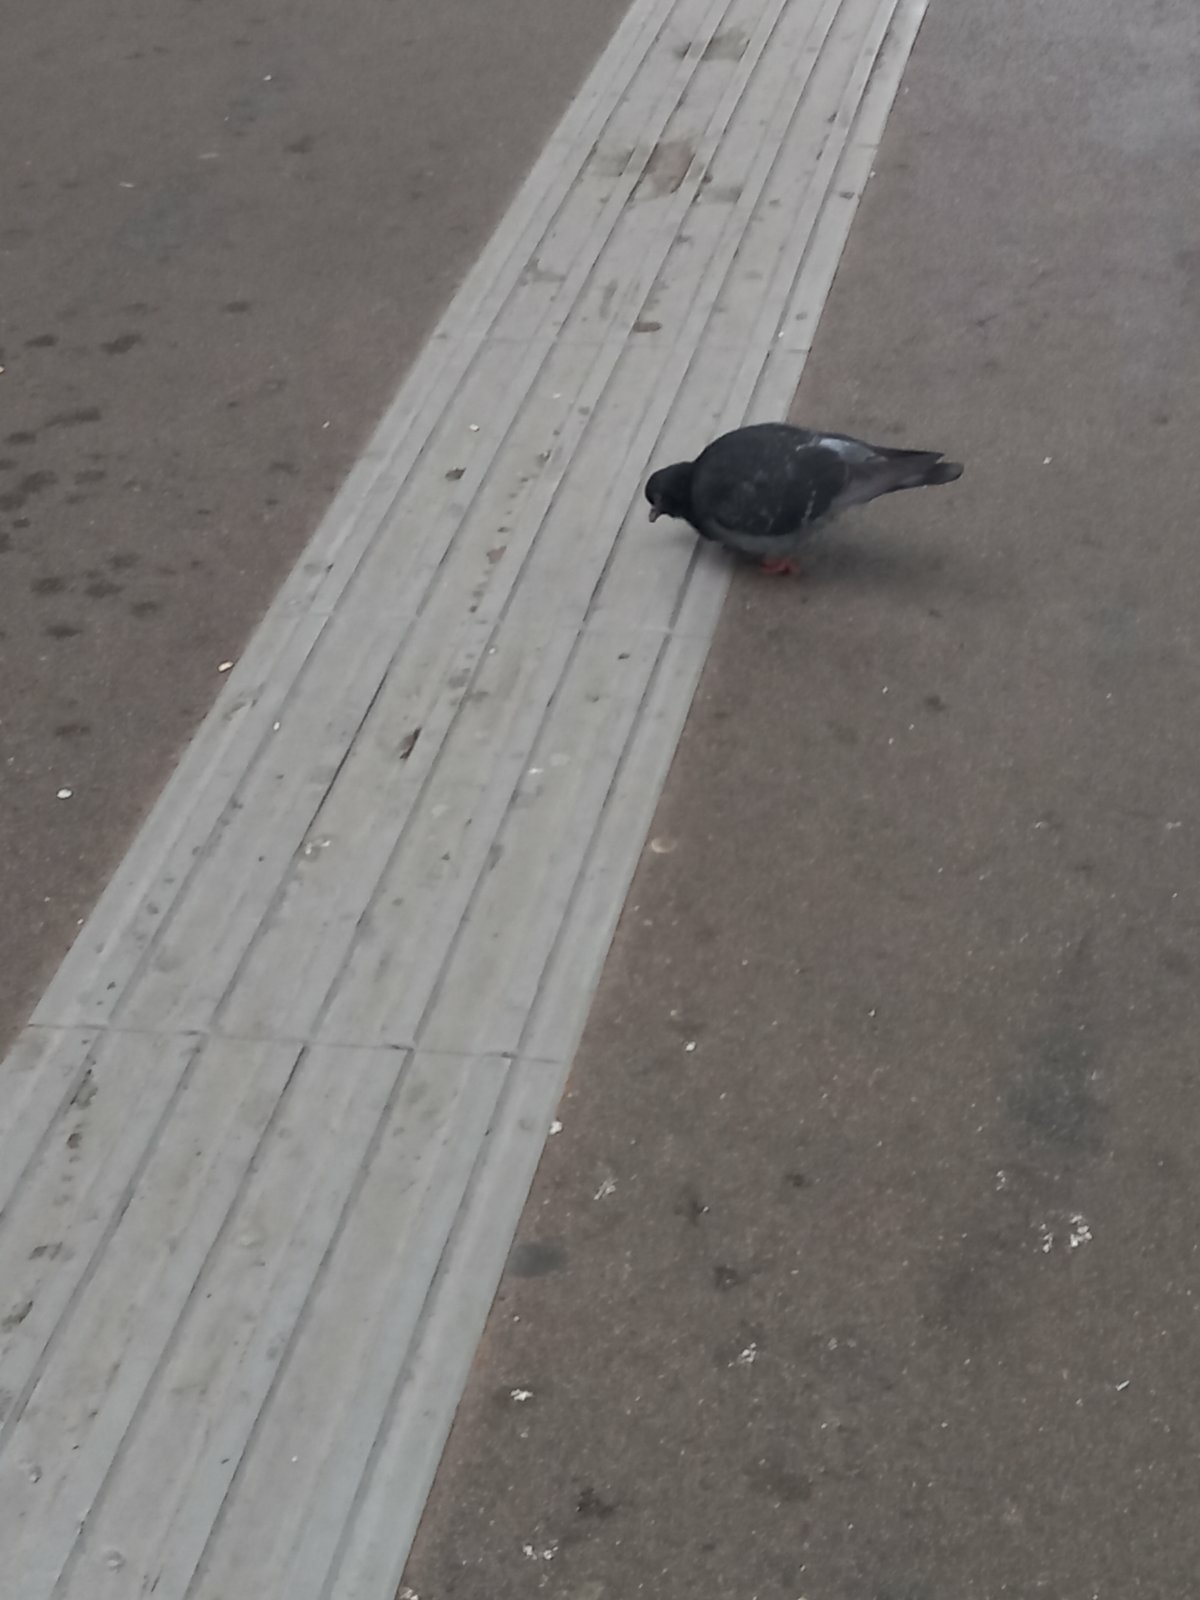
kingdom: Animalia
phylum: Chordata
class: Aves
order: Columbiformes
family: Columbidae
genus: Columba
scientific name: Columba livia
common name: Rock pigeon
